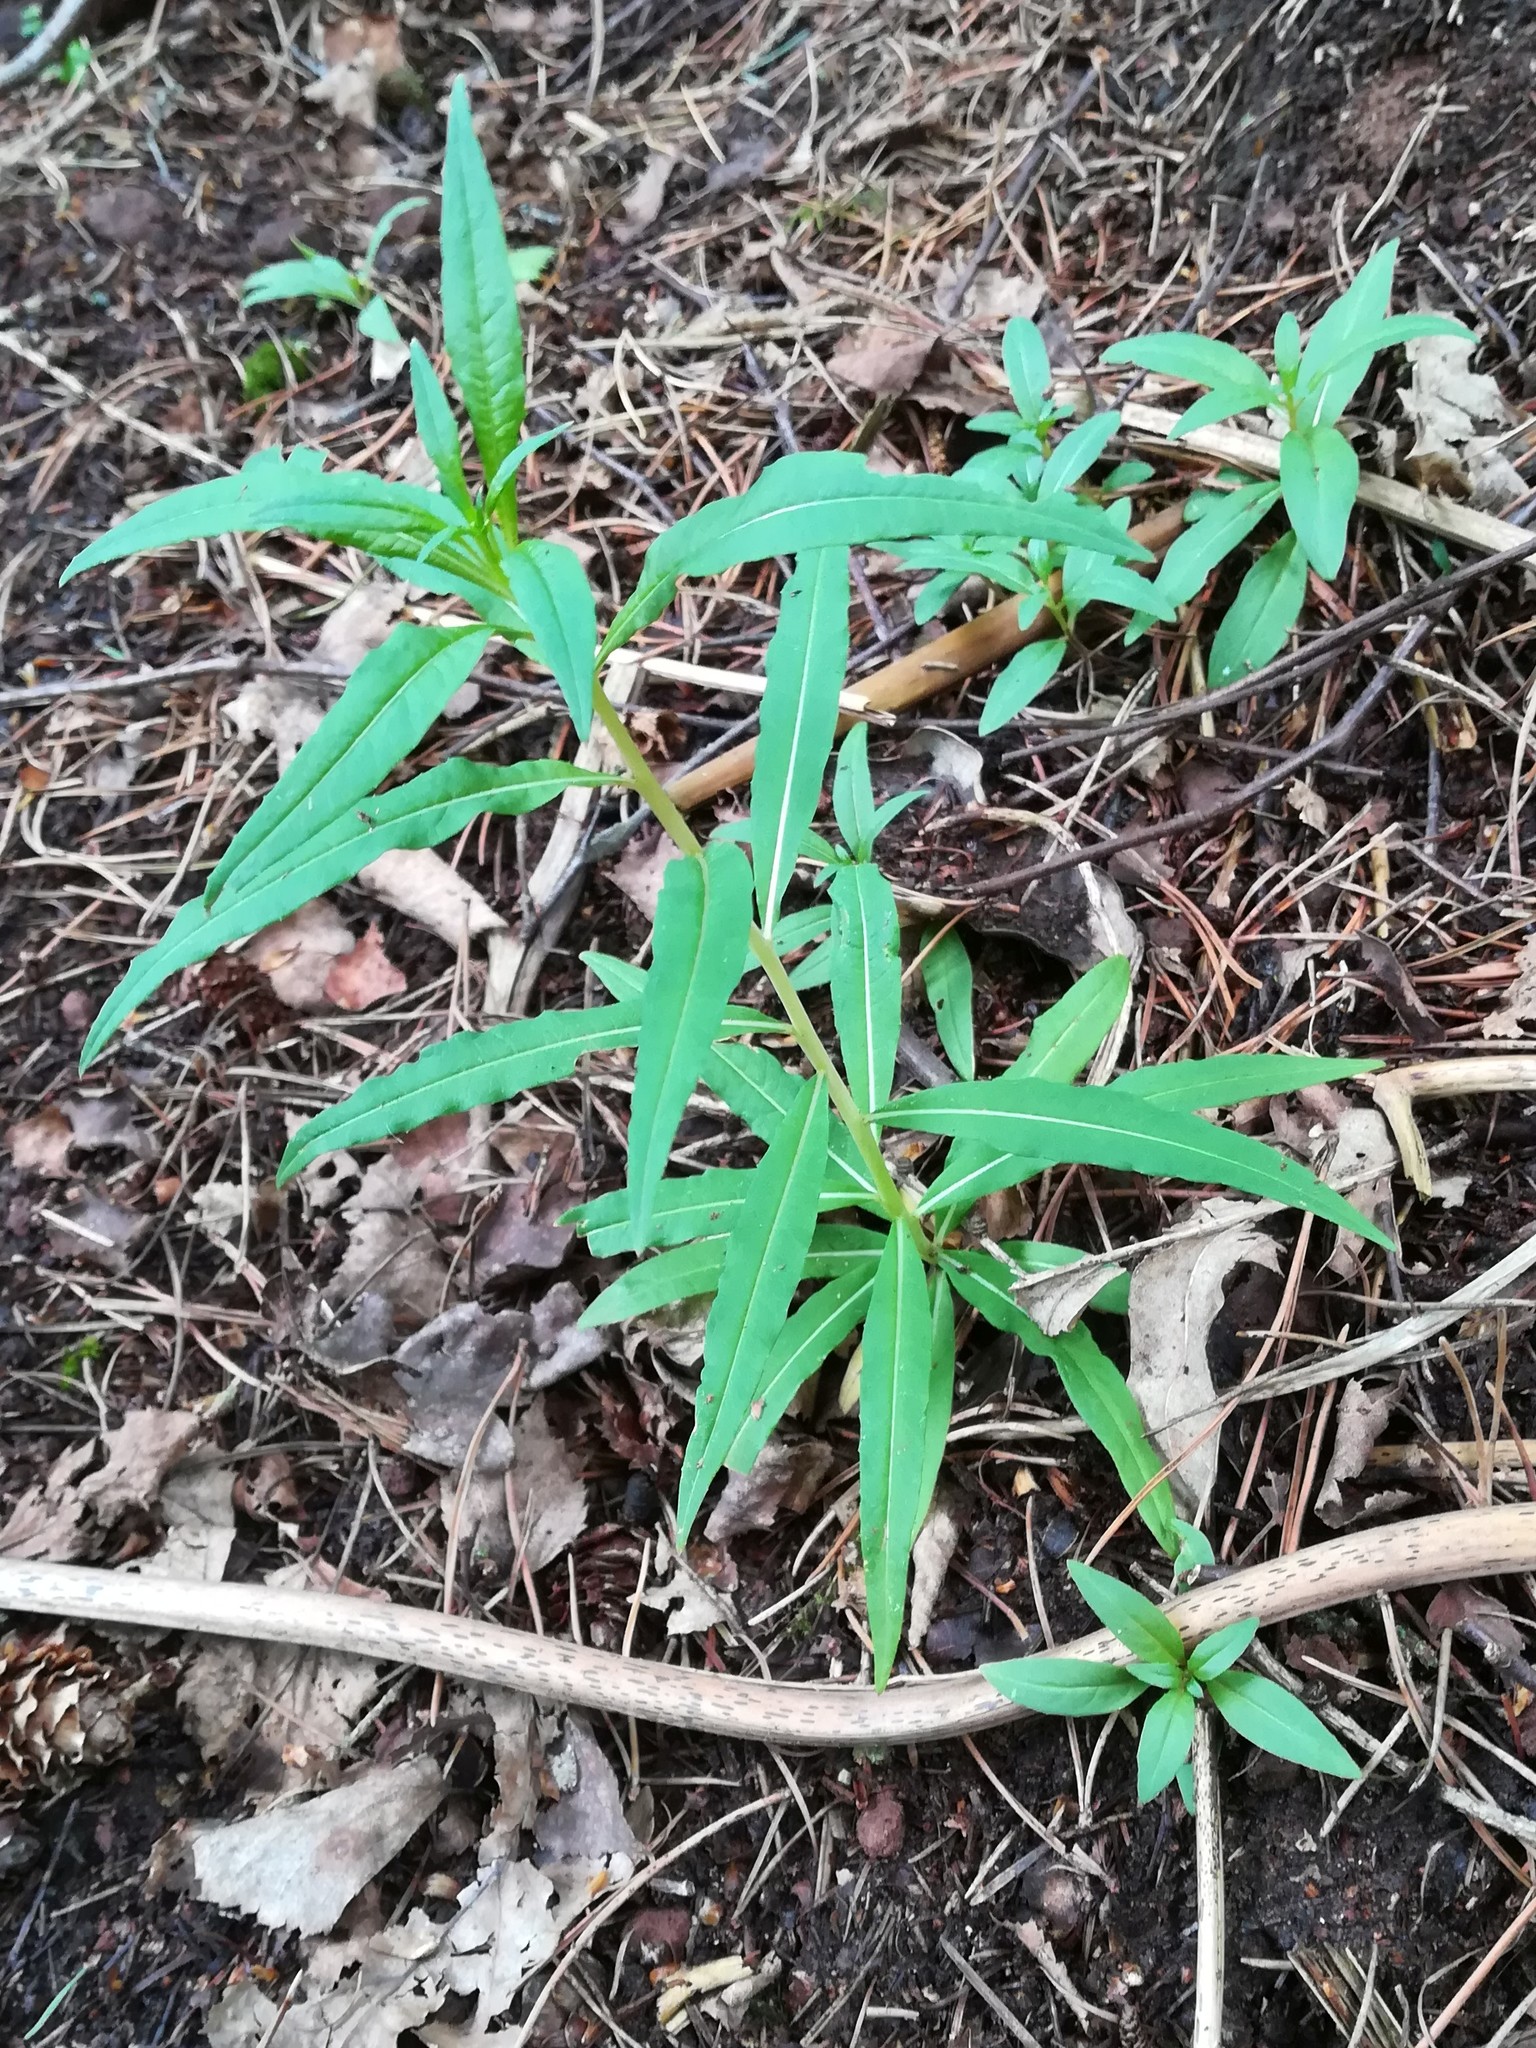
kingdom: Plantae
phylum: Tracheophyta
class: Magnoliopsida
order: Myrtales
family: Onagraceae
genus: Chamaenerion
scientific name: Chamaenerion angustifolium
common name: Fireweed
